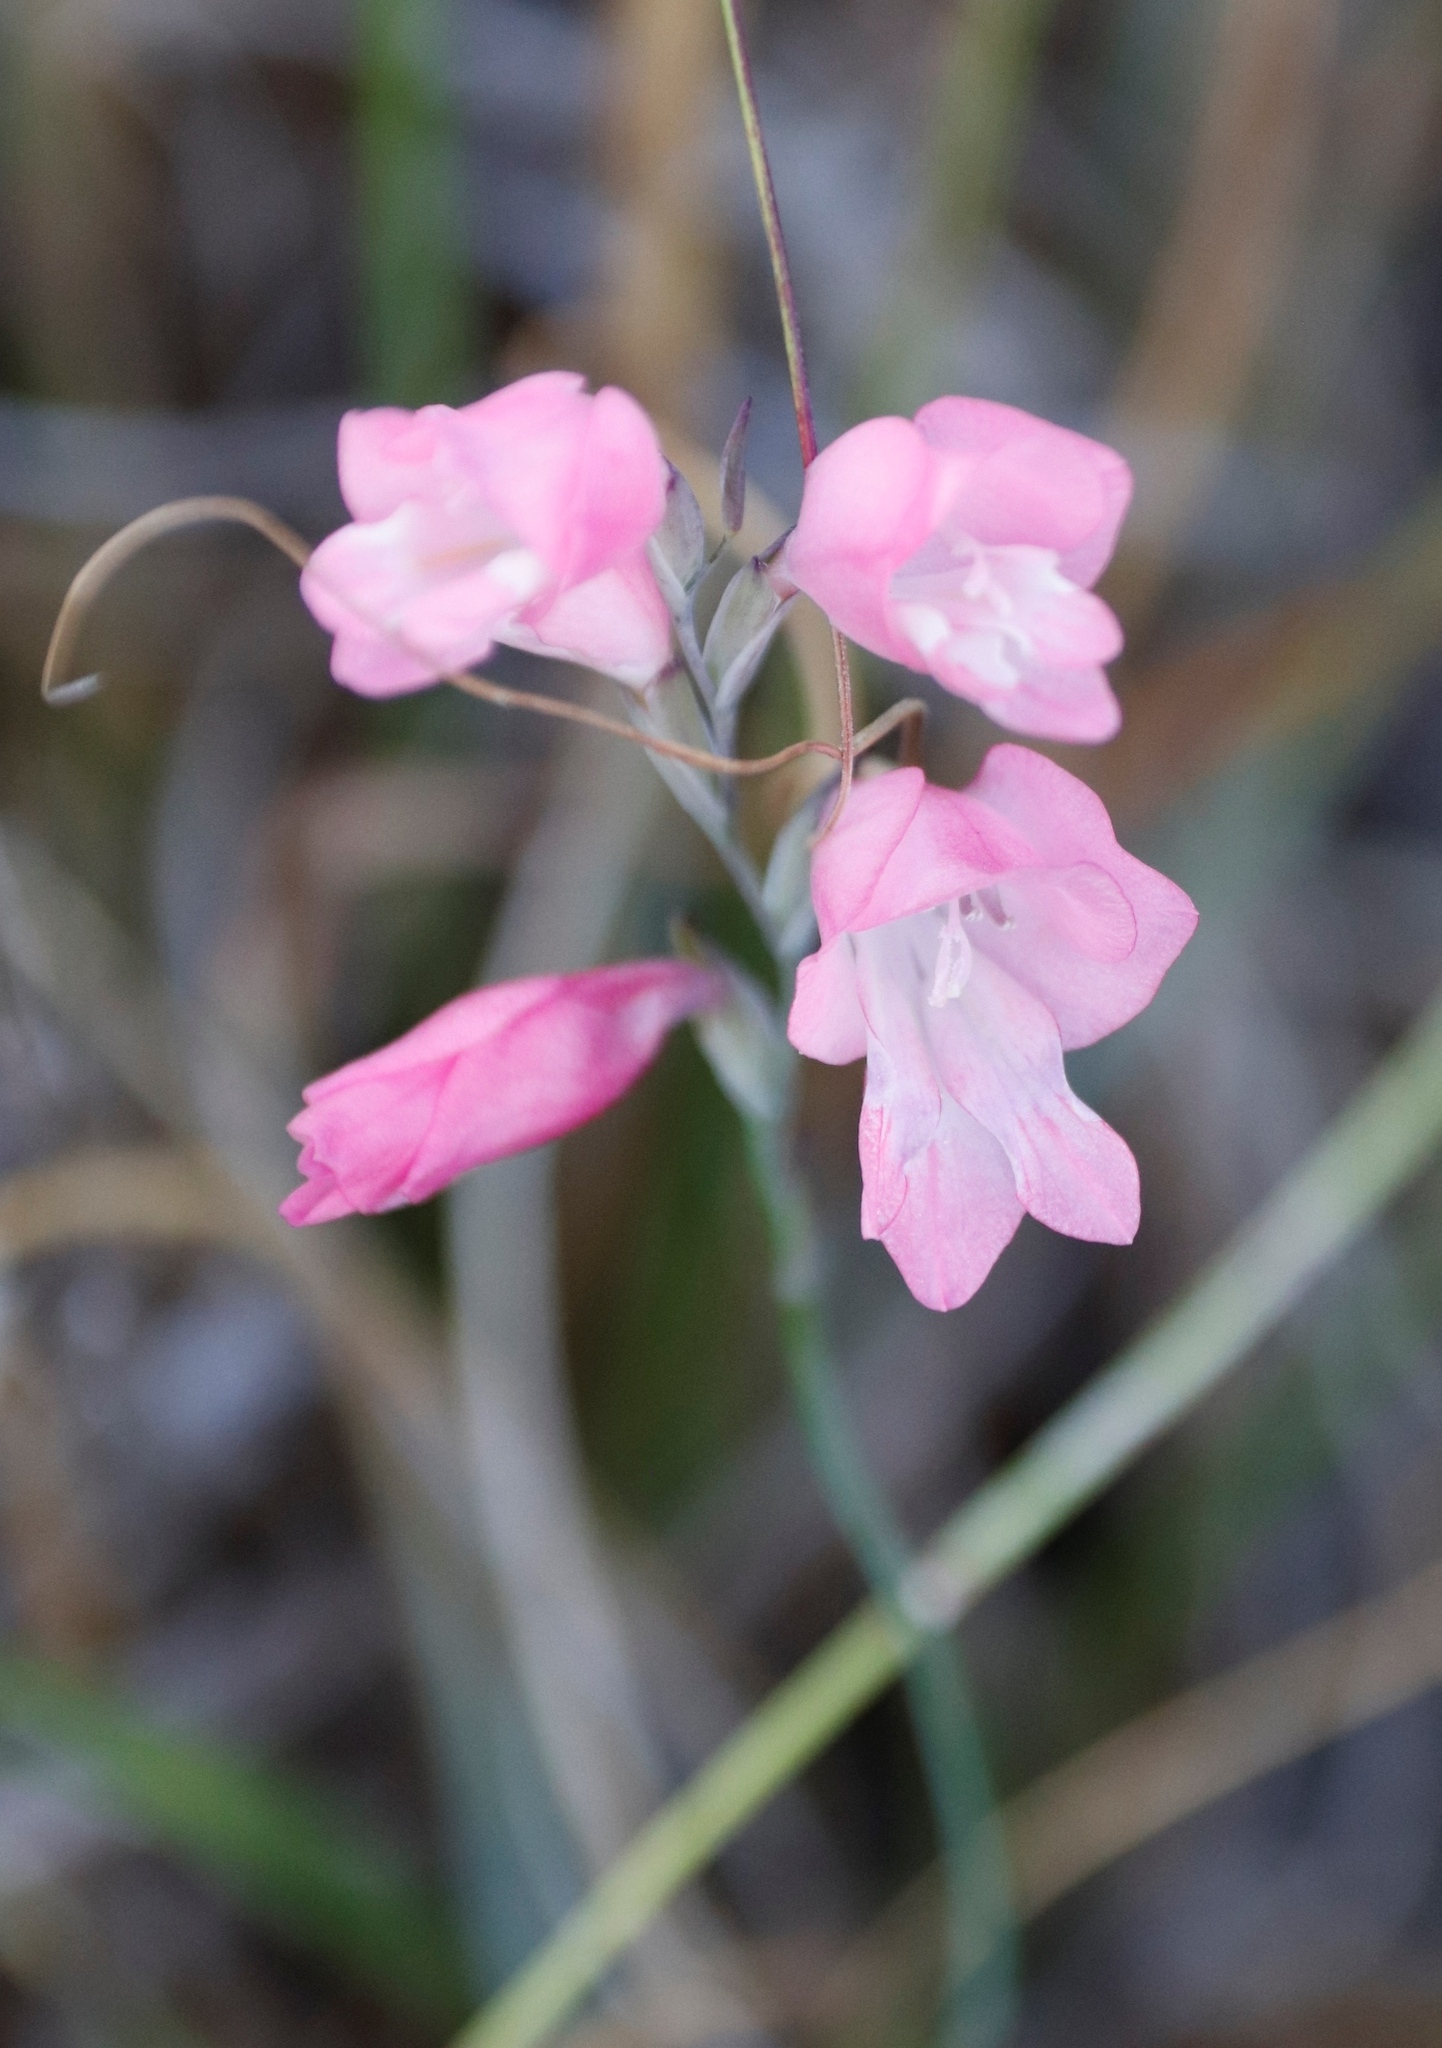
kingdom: Plantae
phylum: Tracheophyta
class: Liliopsida
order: Asparagales
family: Iridaceae
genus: Gladiolus
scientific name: Gladiolus brevifolius
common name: March pypie
